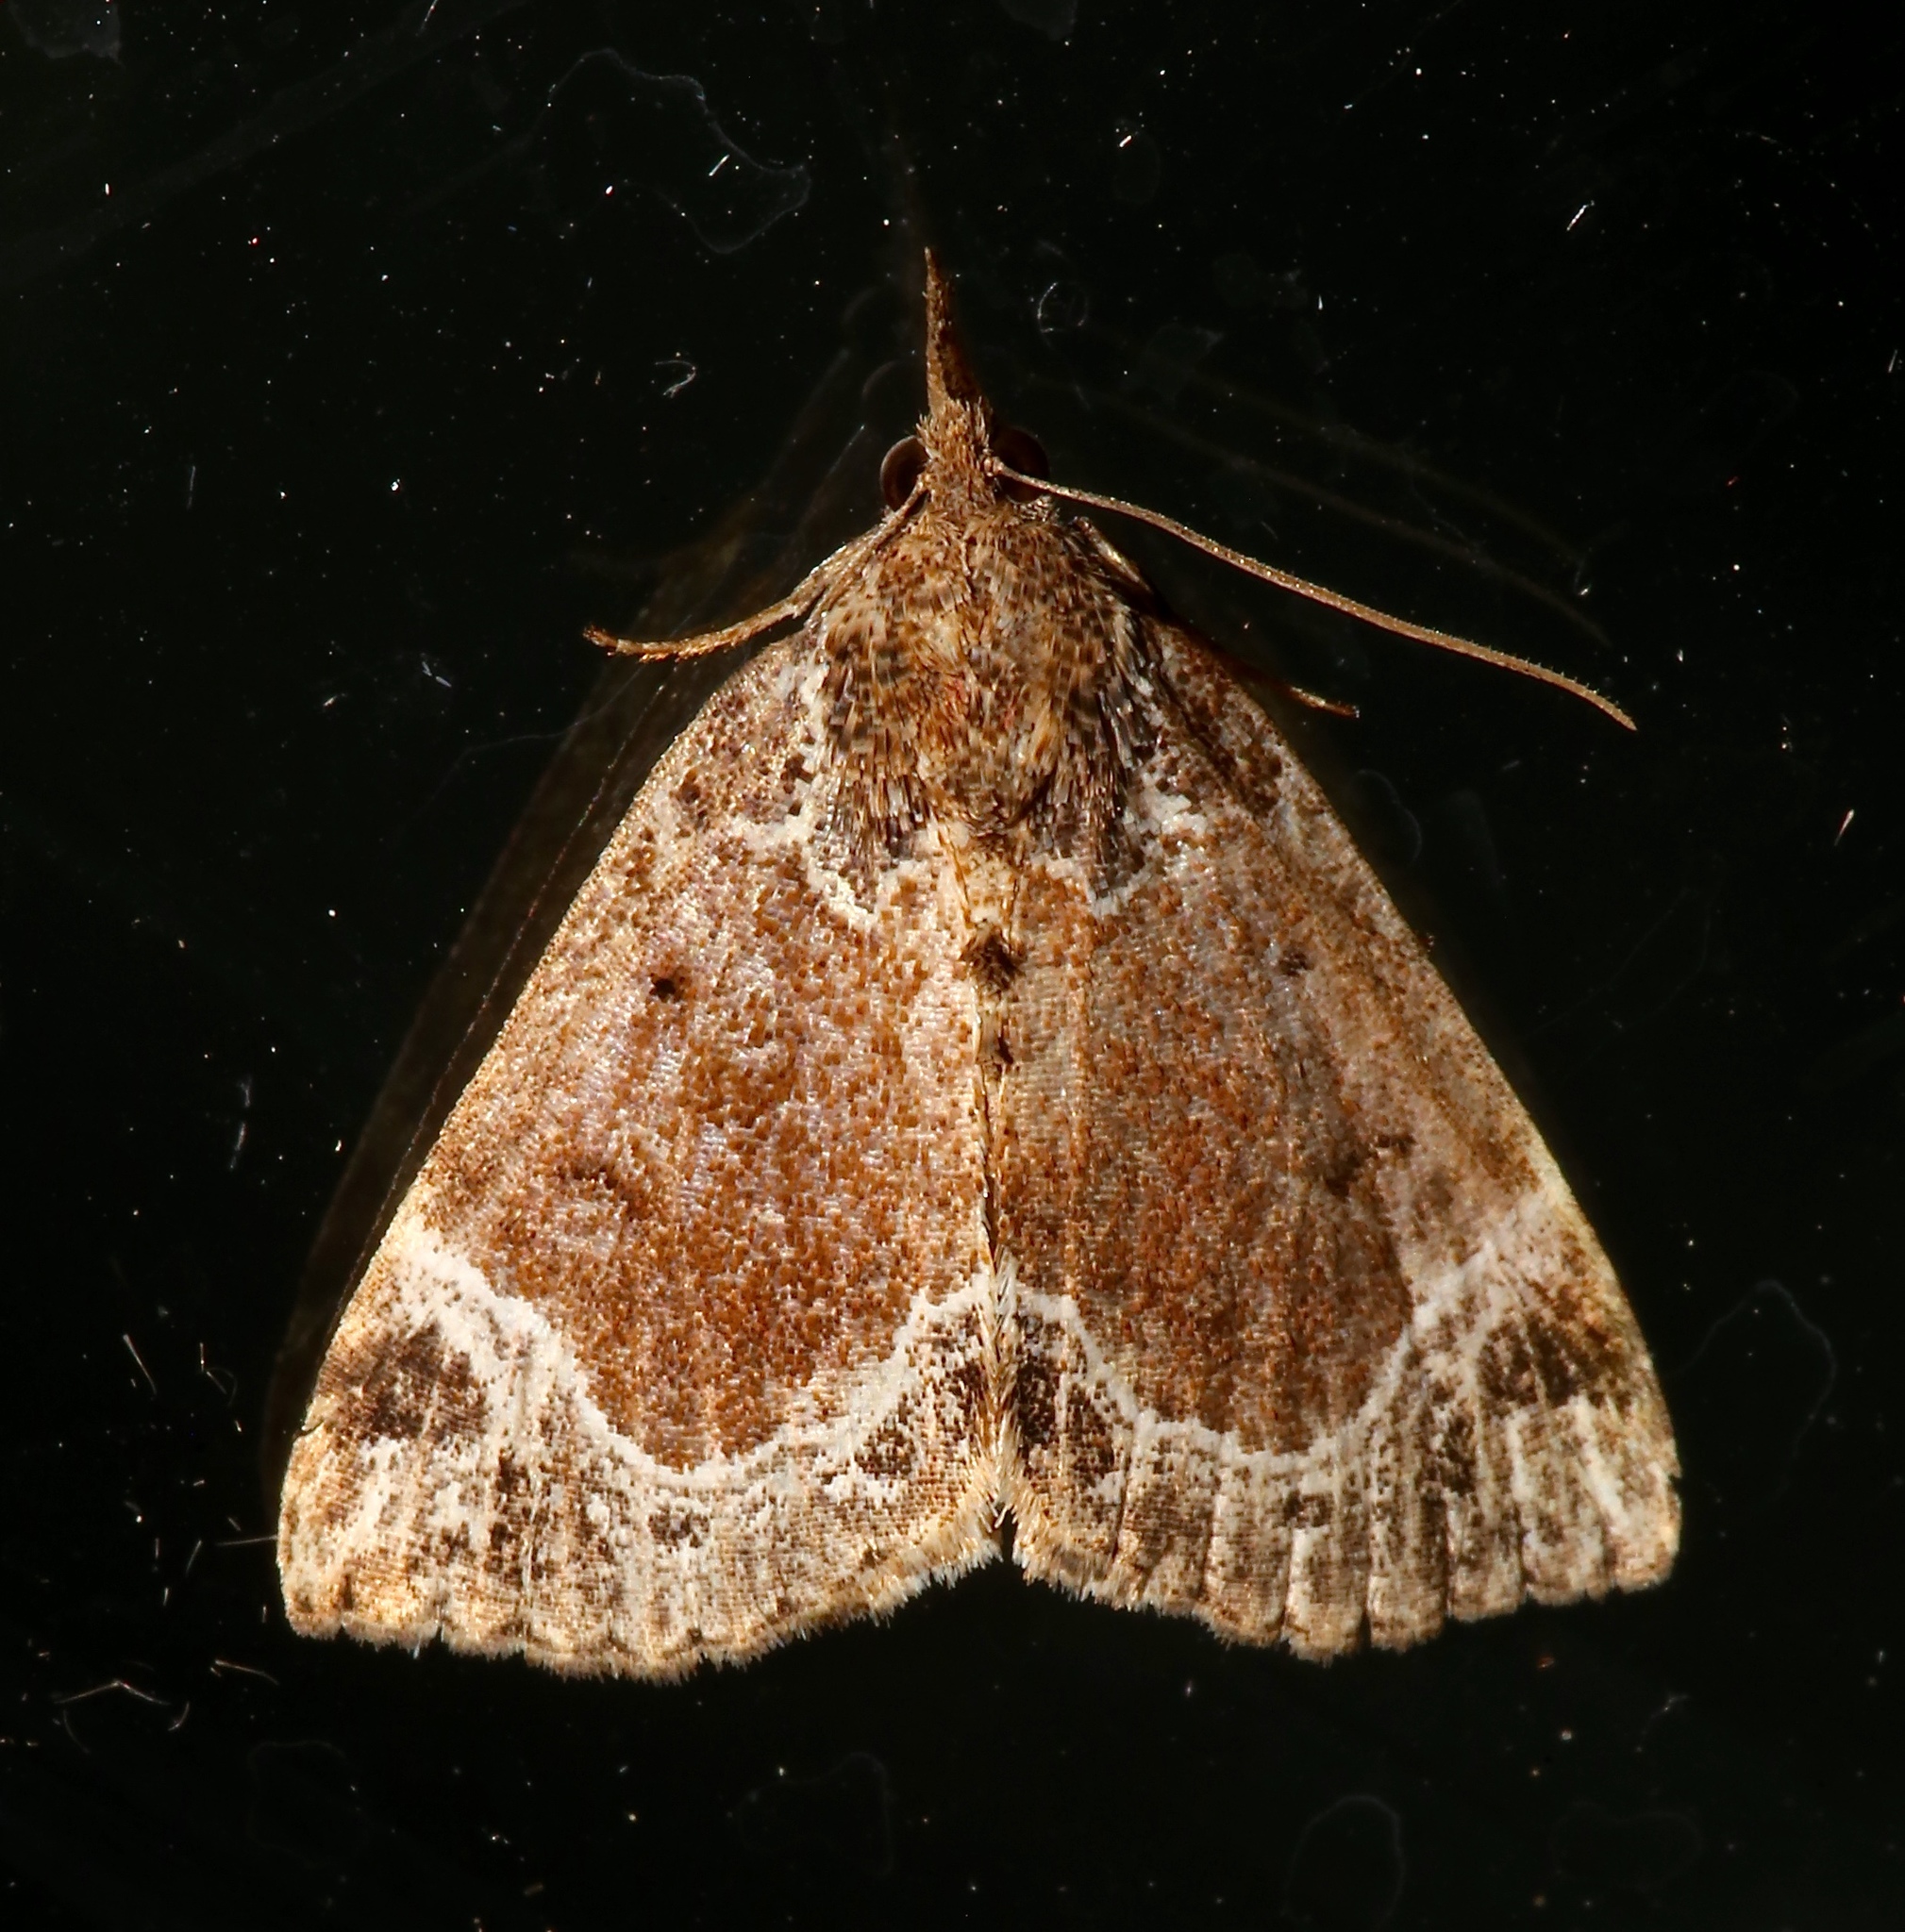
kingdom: Animalia
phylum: Arthropoda
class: Insecta
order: Lepidoptera
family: Erebidae
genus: Hypena
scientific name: Hypena abalienalis
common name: White-lined snout
